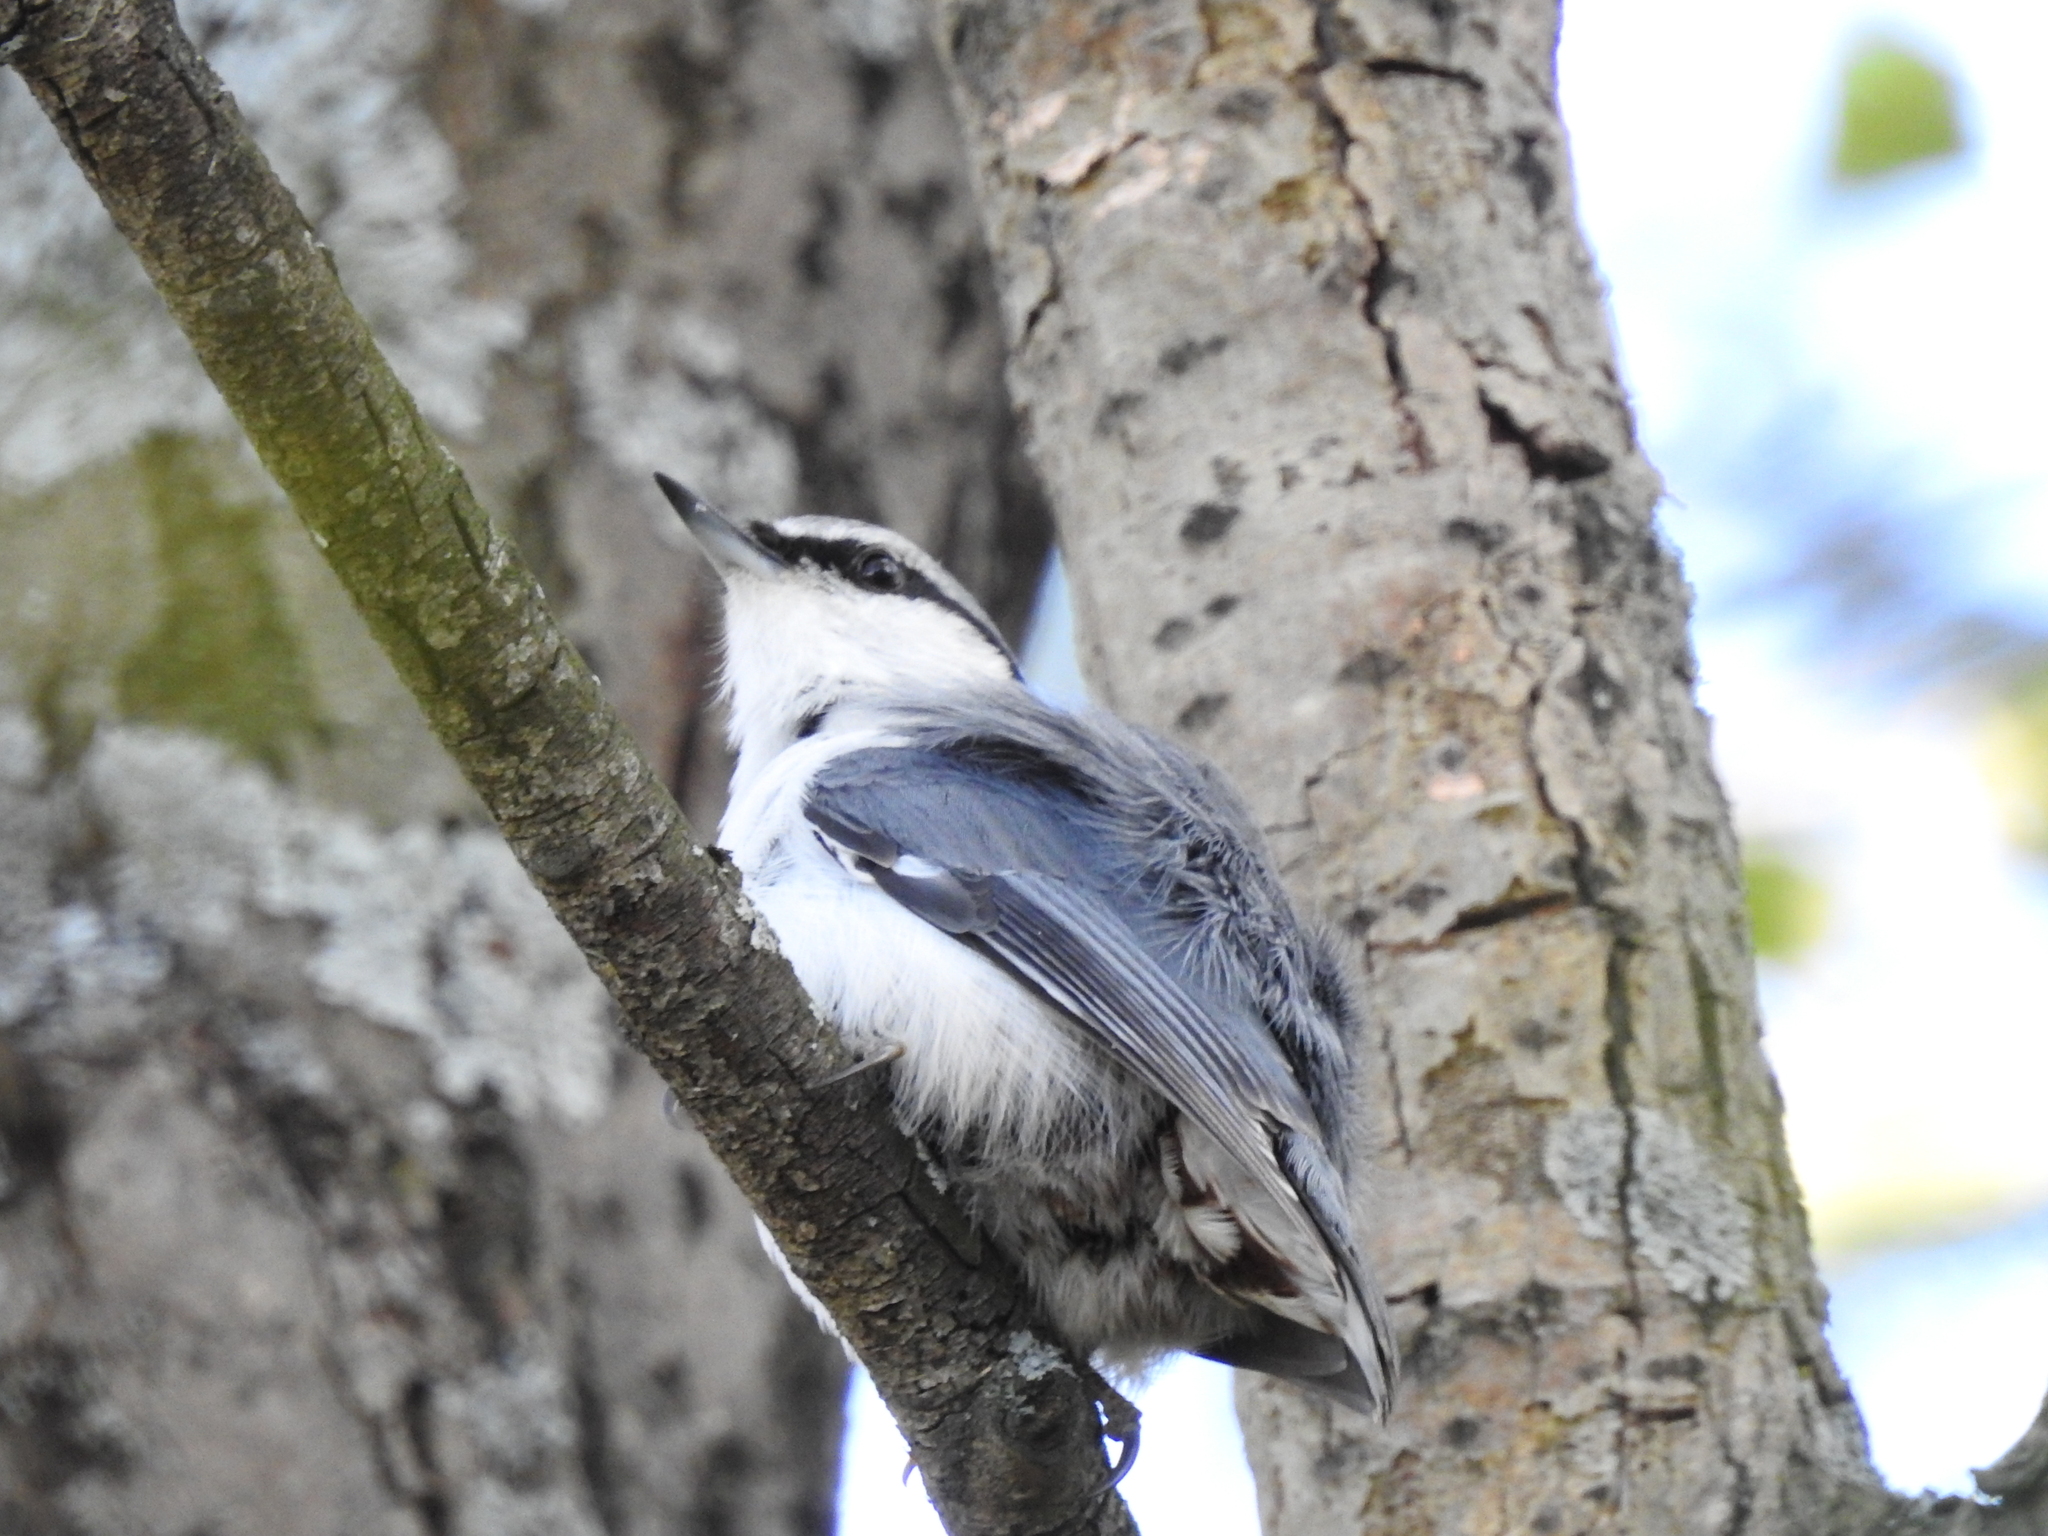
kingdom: Animalia
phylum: Chordata
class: Aves
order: Passeriformes
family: Sittidae
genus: Sitta
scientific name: Sitta europaea
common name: Eurasian nuthatch
